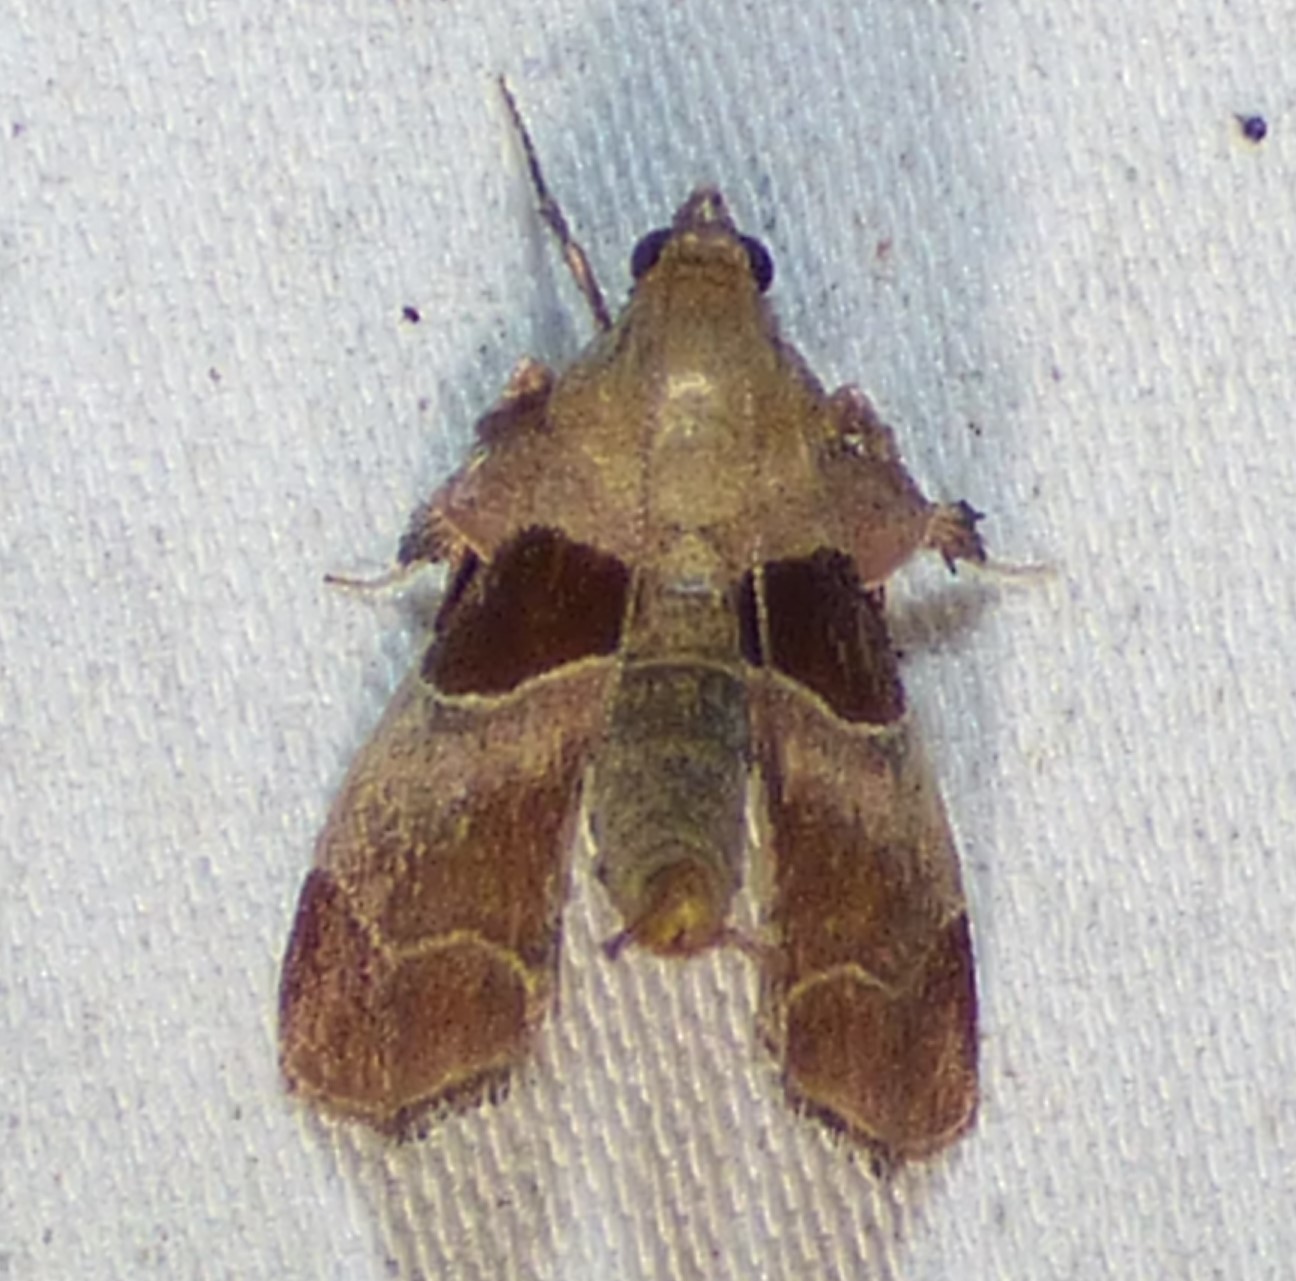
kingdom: Animalia
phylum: Arthropoda
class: Insecta
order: Lepidoptera
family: Pyralidae
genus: Tosale
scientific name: Tosale oviplagalis
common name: Dimorphic tosale moth
